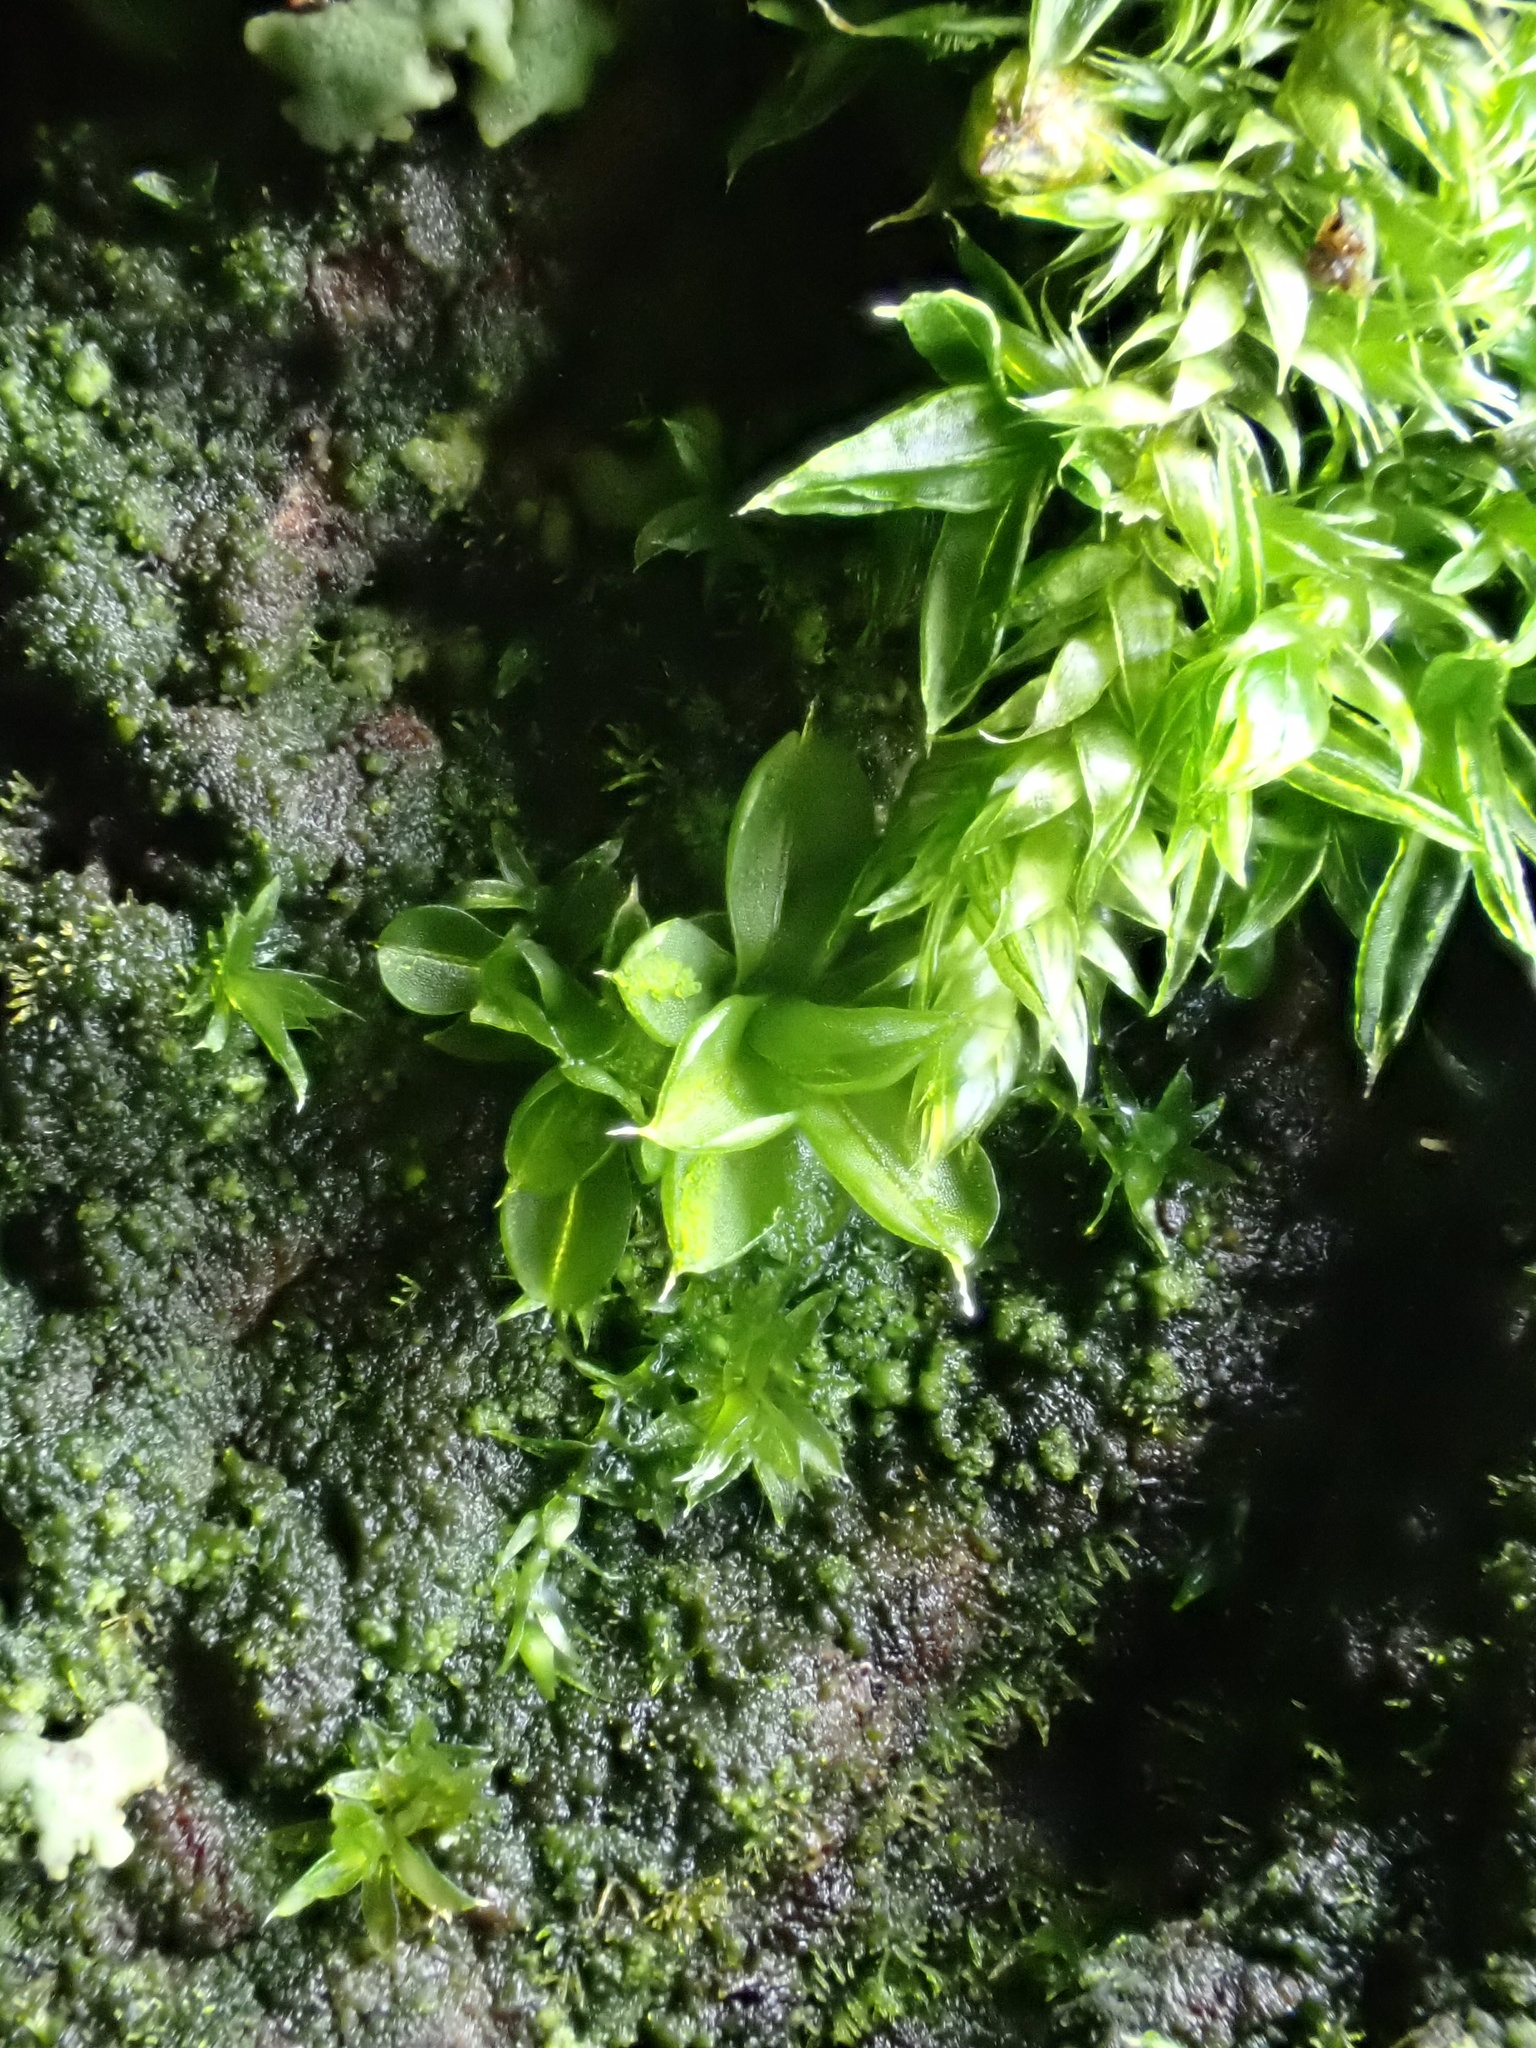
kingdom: Plantae
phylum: Bryophyta
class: Bryopsida
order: Pottiales
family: Pottiaceae
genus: Syntrichia
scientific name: Syntrichia papillosa
